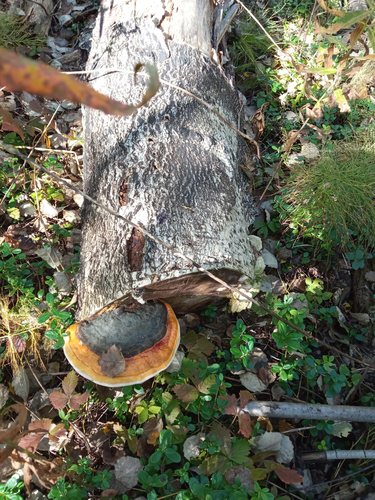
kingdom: Fungi
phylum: Basidiomycota
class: Agaricomycetes
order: Polyporales
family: Fomitopsidaceae
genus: Fomitopsis
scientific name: Fomitopsis pinicola
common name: Red-belted bracket
